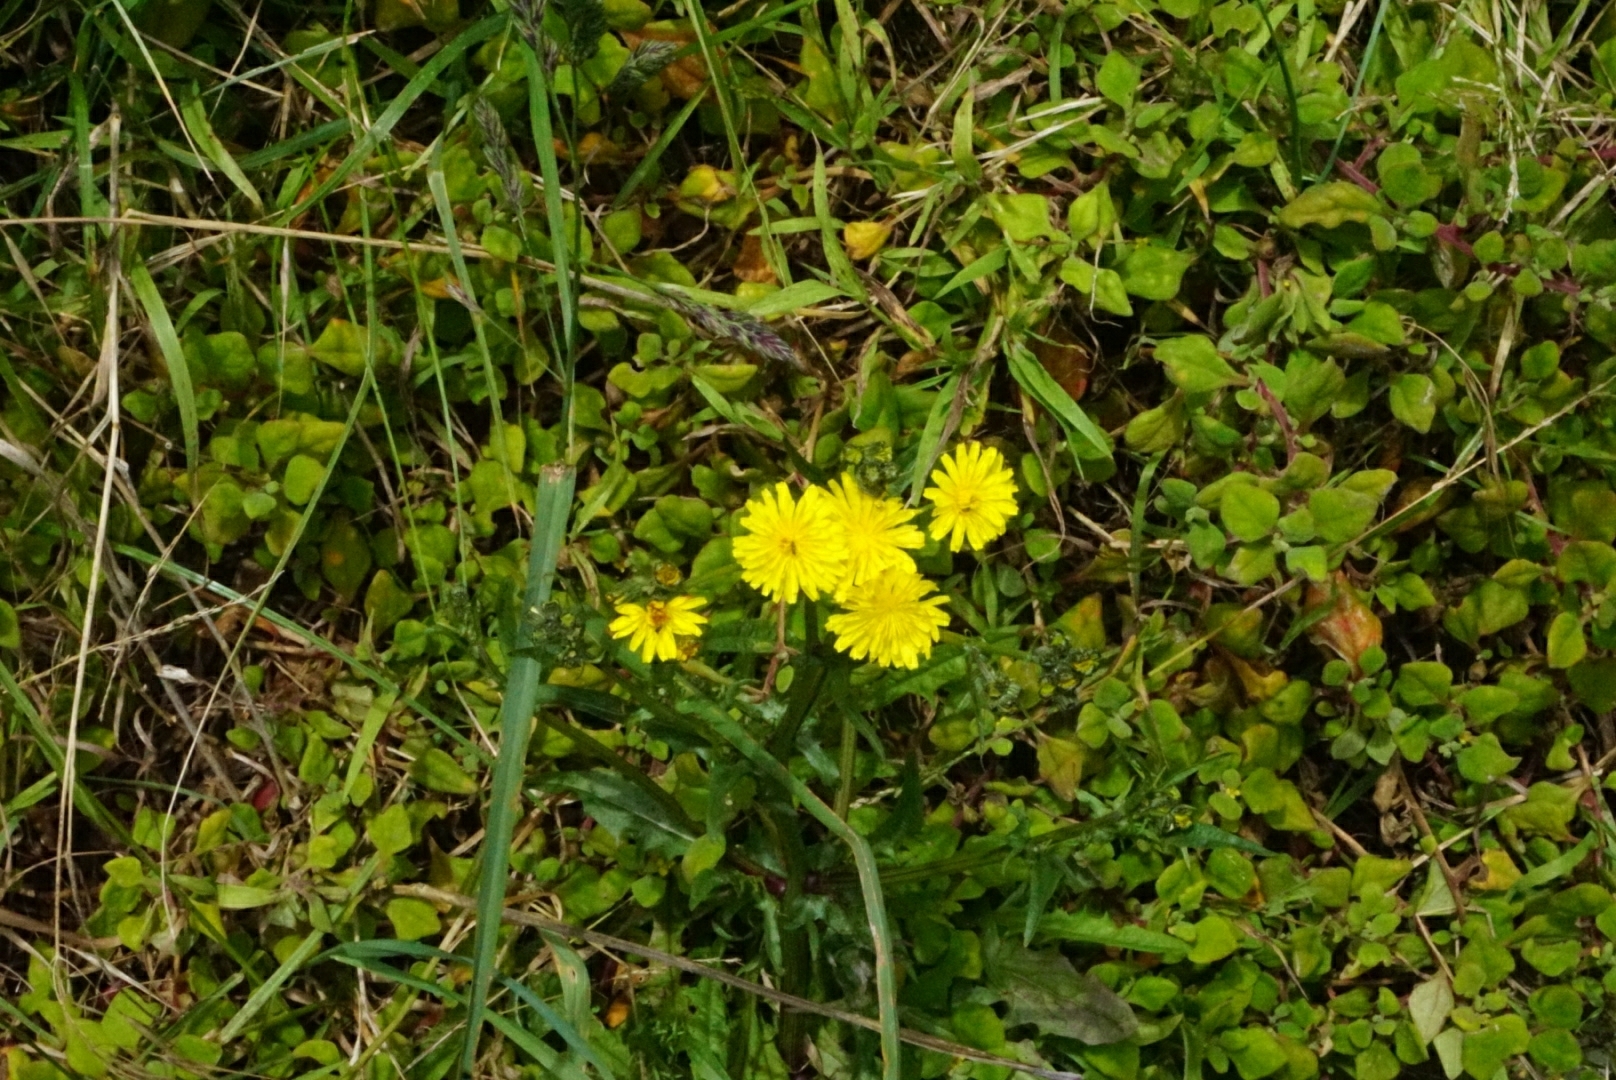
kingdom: Plantae
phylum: Tracheophyta
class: Magnoliopsida
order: Asterales
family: Asteraceae
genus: Crepis
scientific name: Crepis capillaris
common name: Smooth hawksbeard
